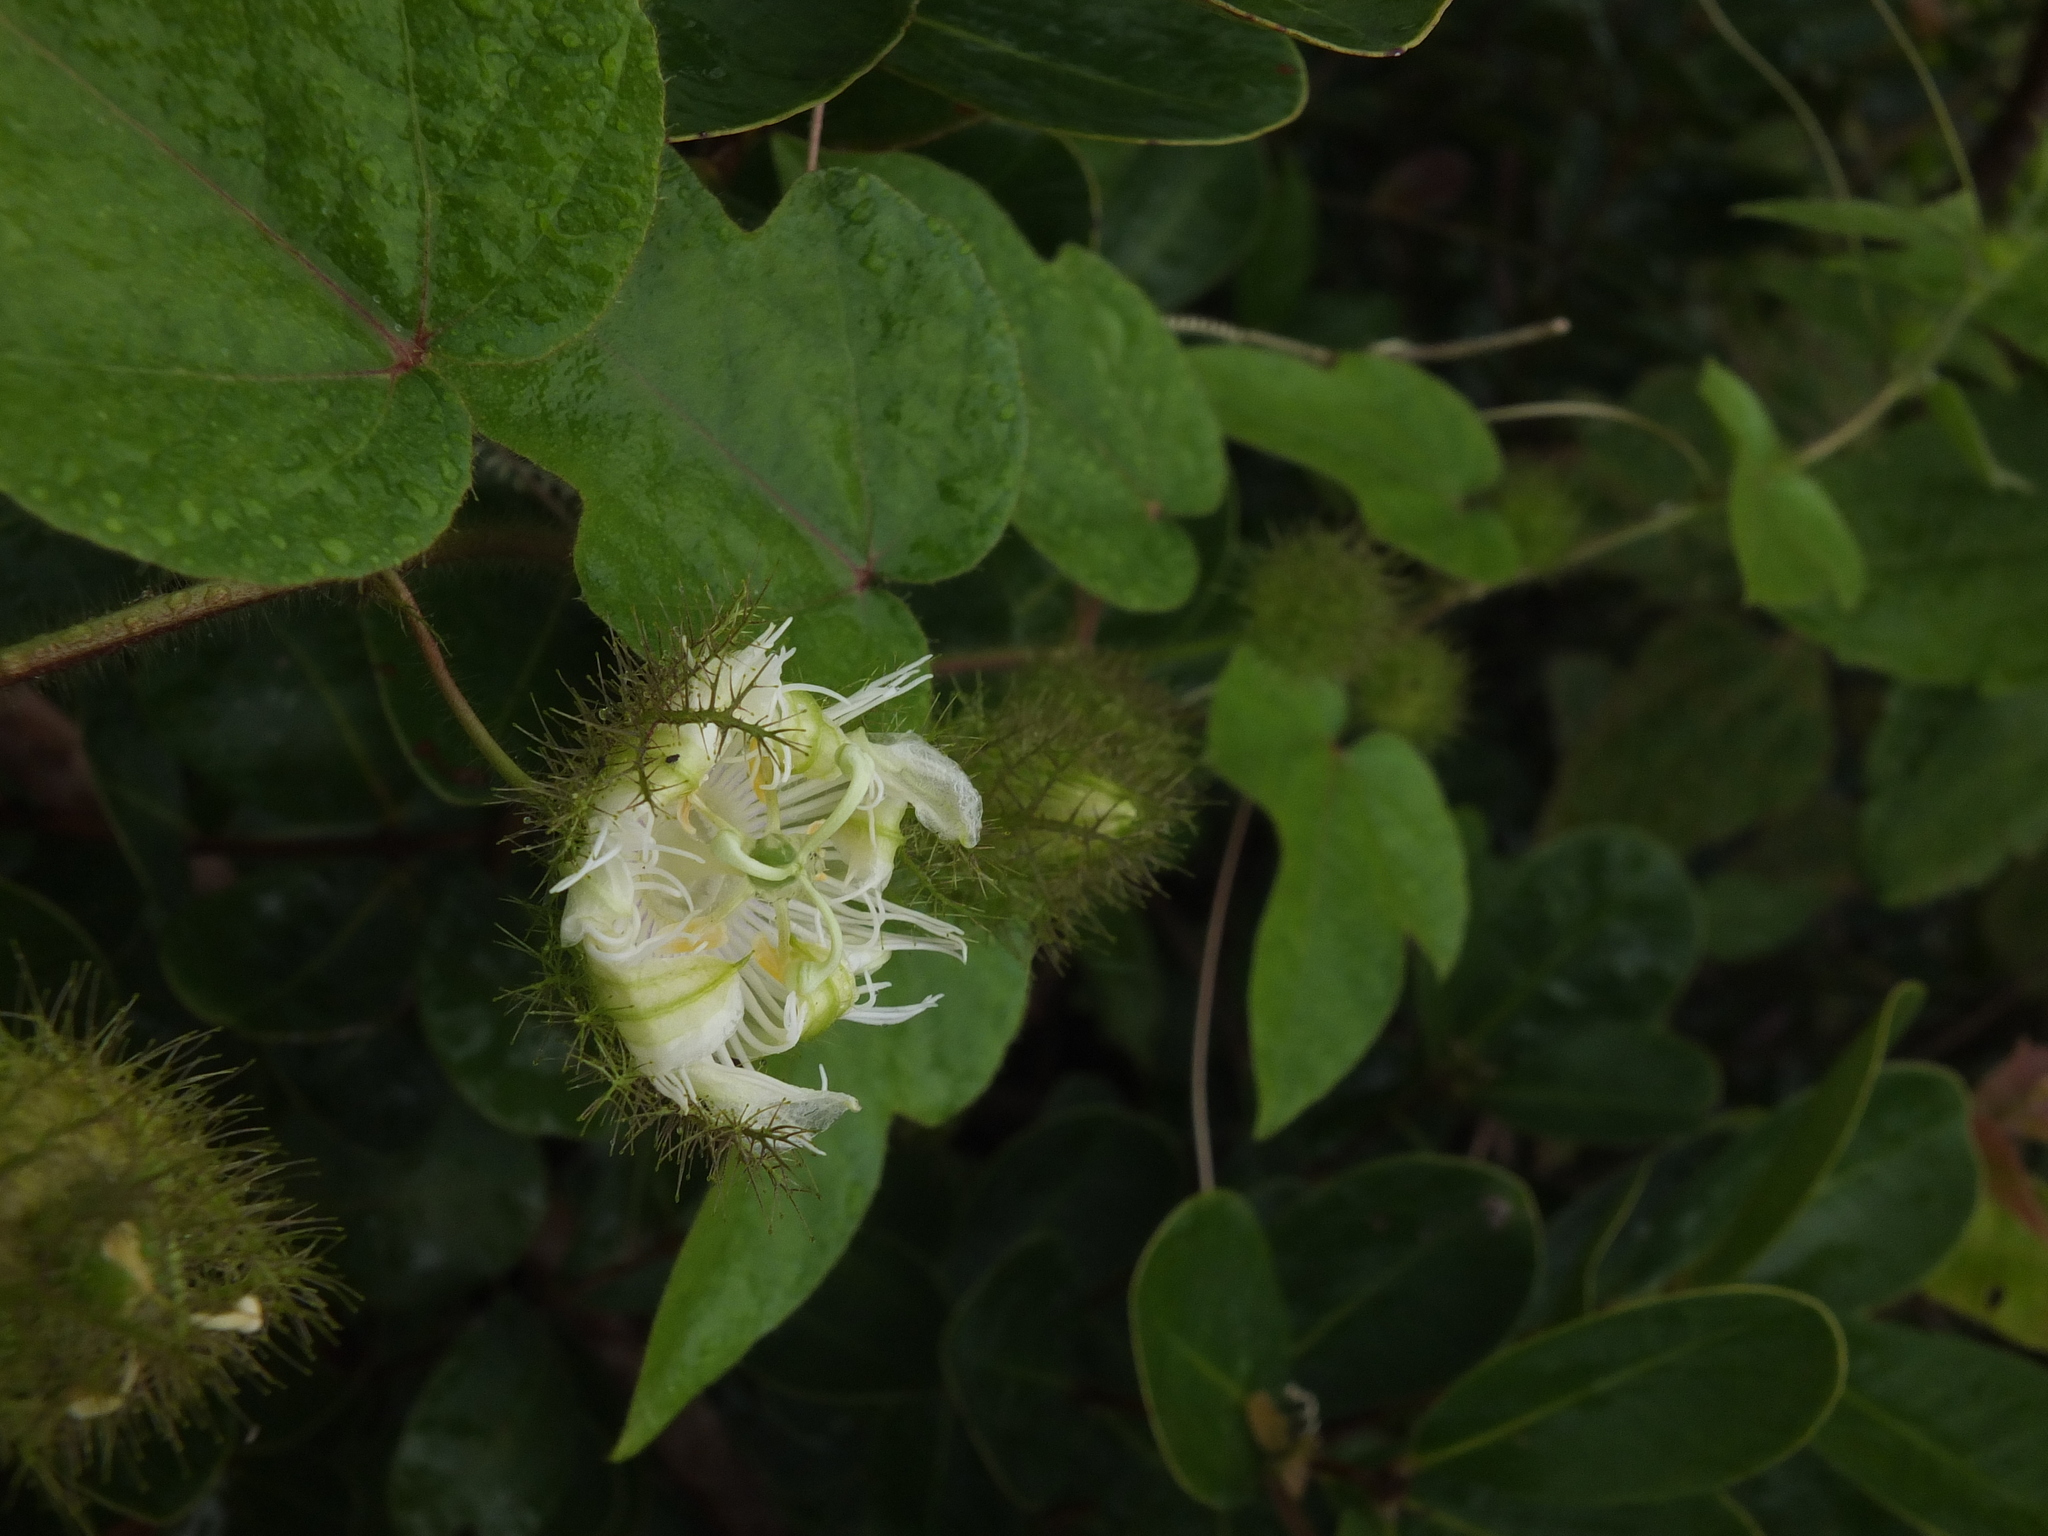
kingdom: Plantae
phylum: Tracheophyta
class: Magnoliopsida
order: Malpighiales
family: Passifloraceae
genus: Passiflora
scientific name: Passiflora foetida
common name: Fetid passionflower
